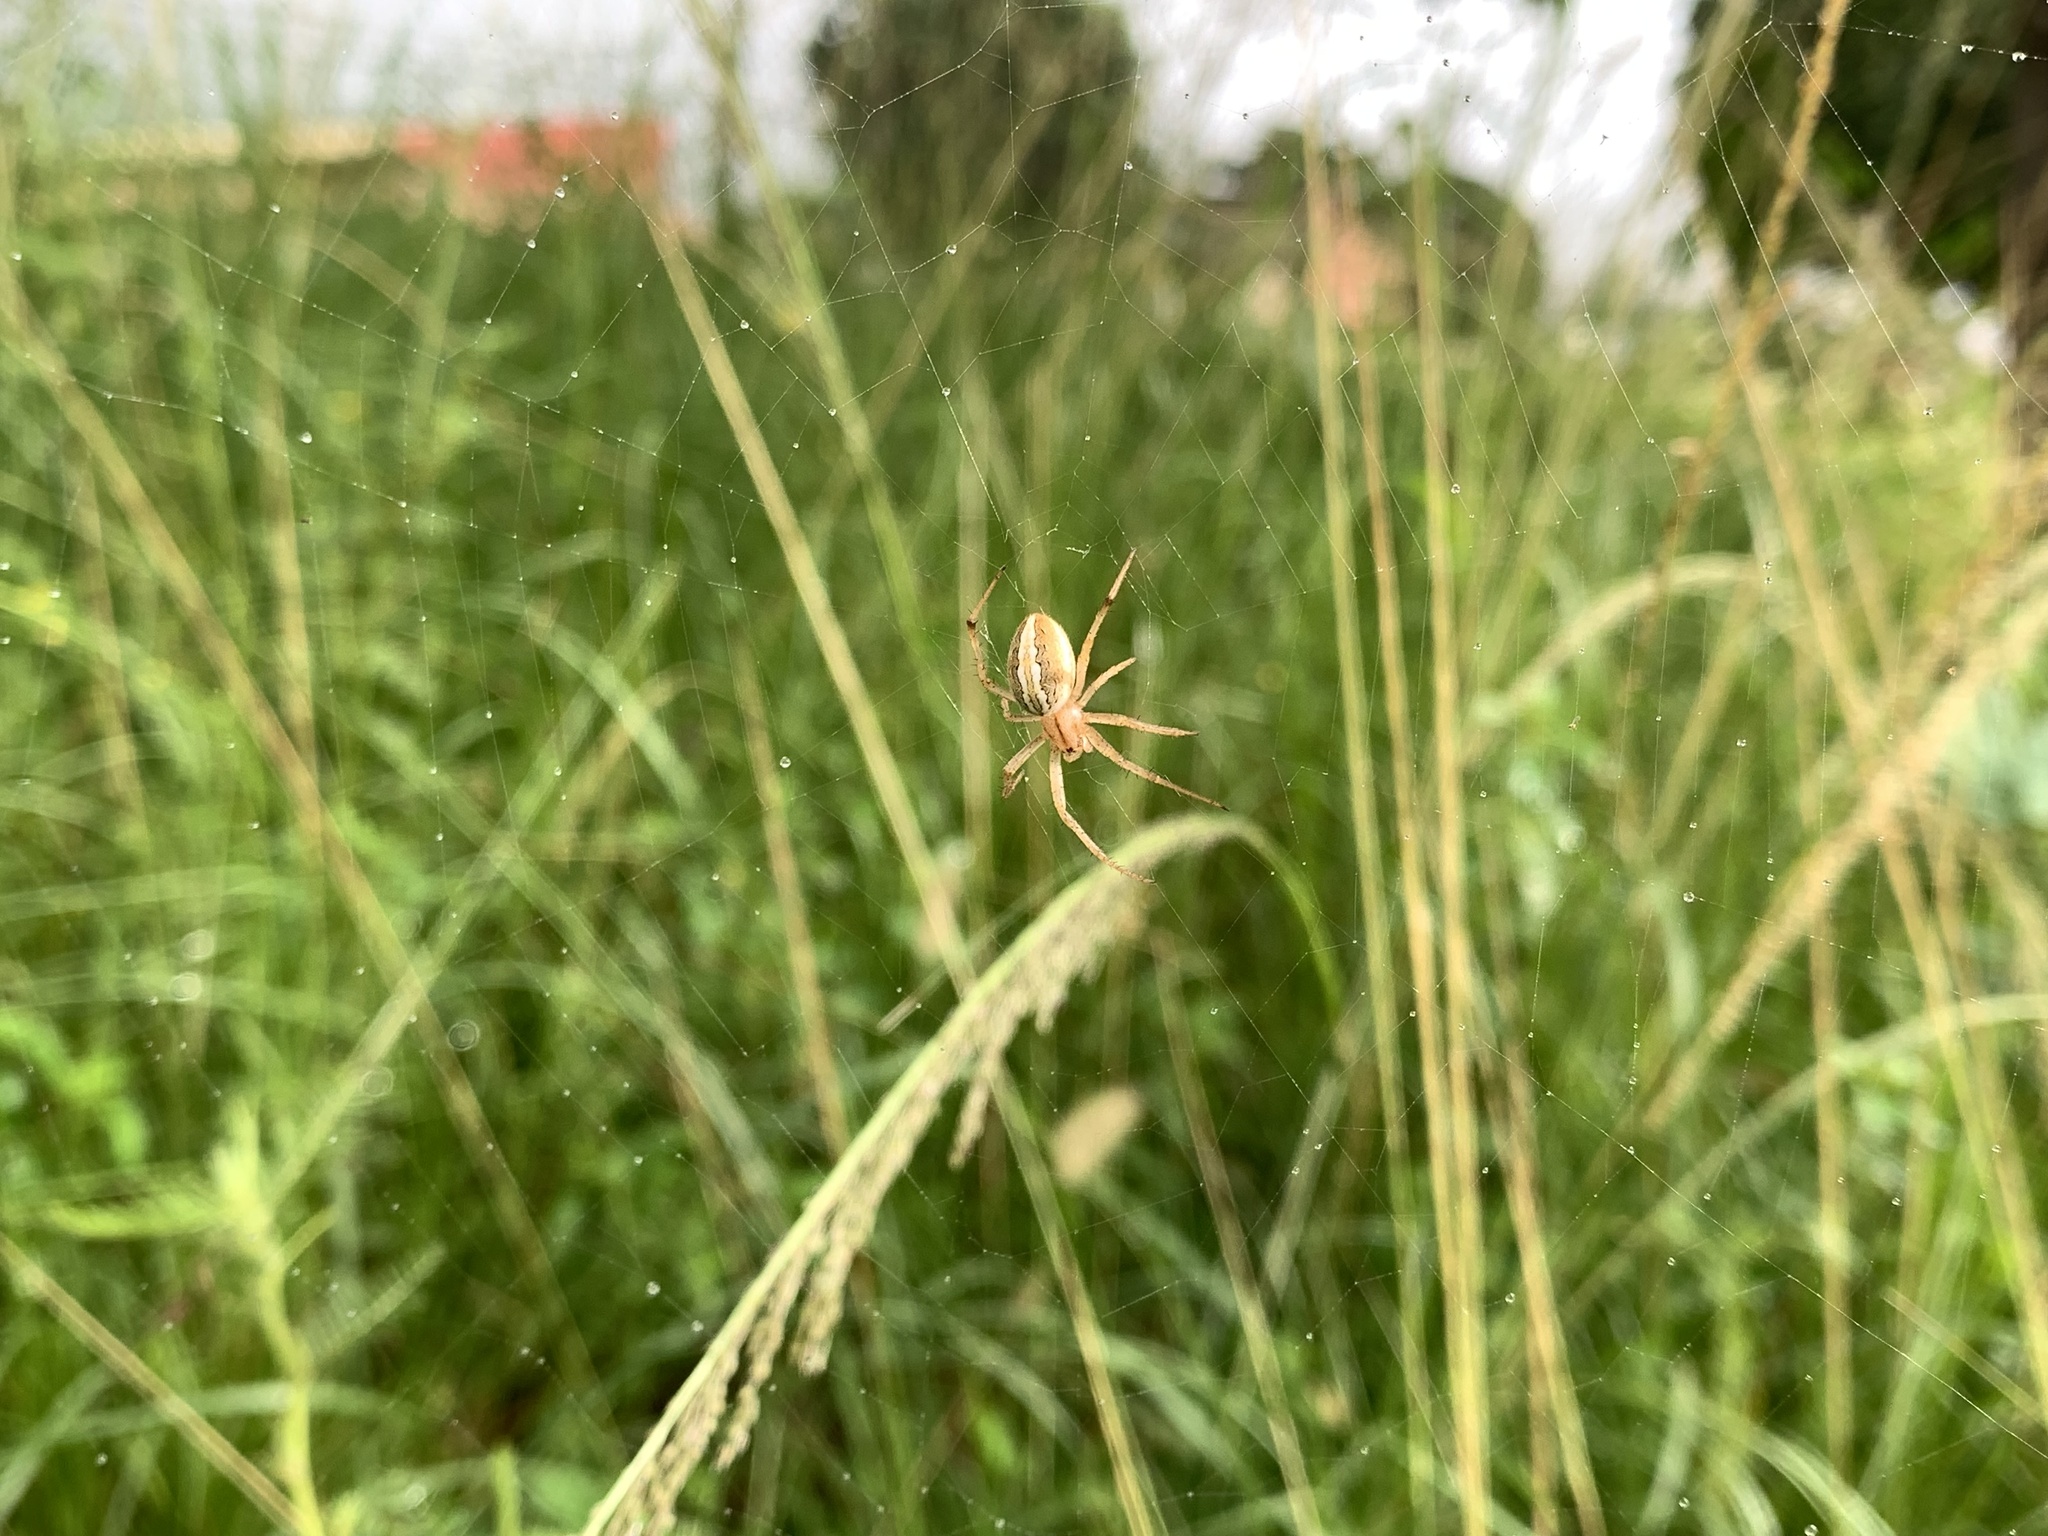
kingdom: Animalia
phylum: Arthropoda
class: Arachnida
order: Araneae
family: Araneidae
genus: Neoscona
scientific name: Neoscona moreli
